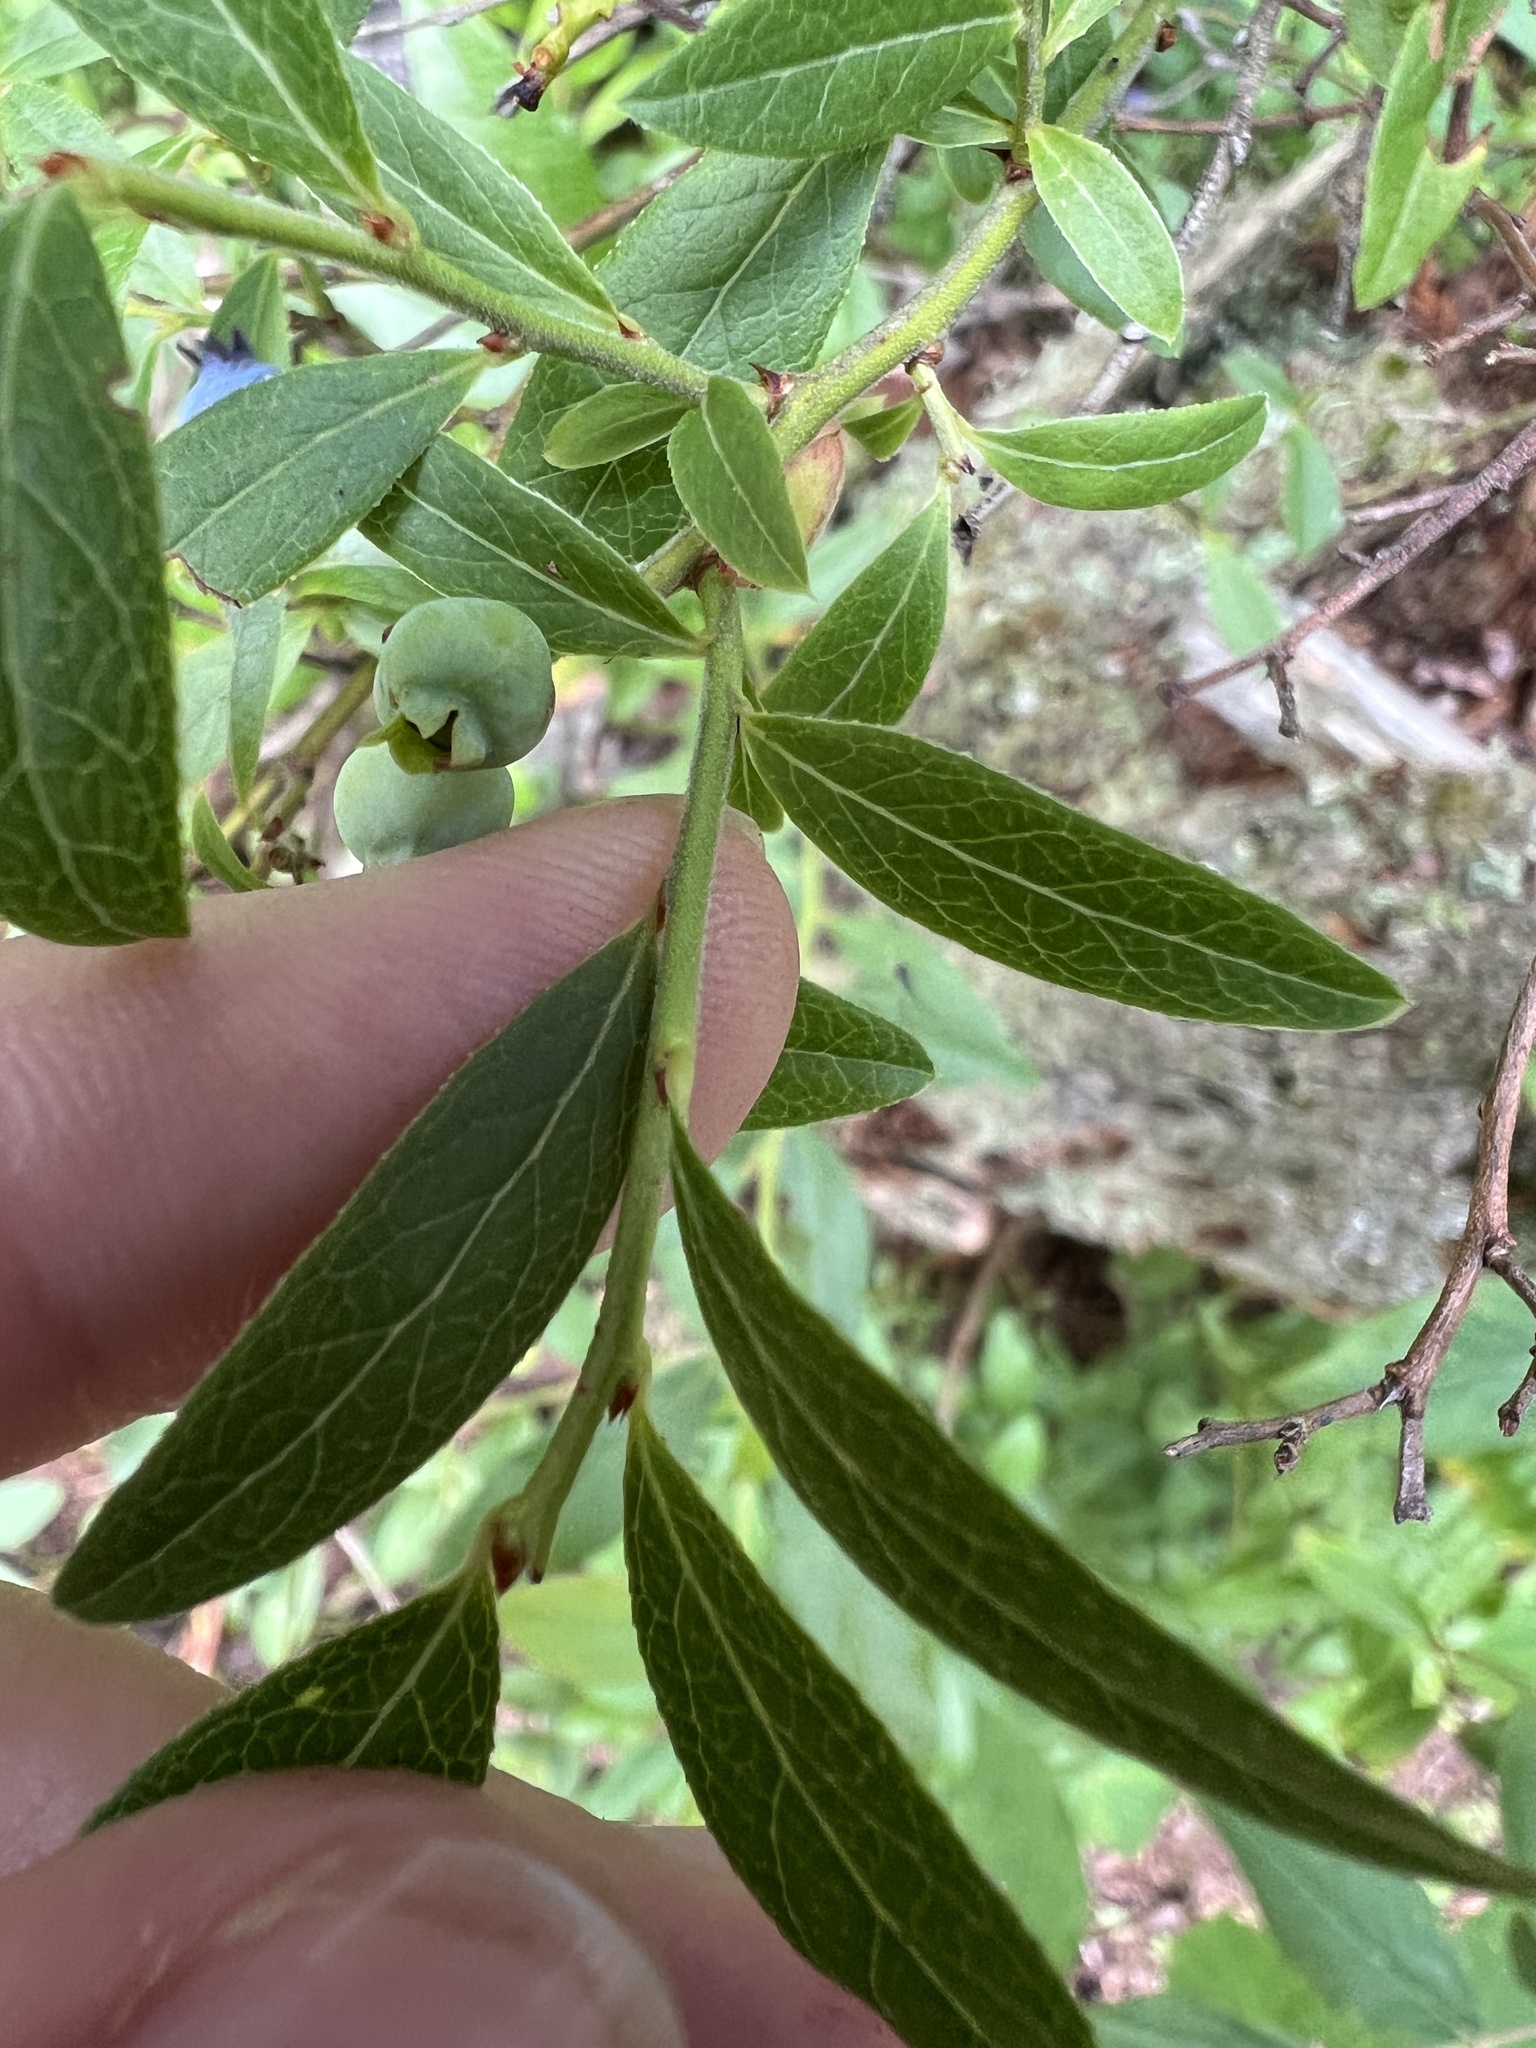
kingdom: Plantae
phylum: Tracheophyta
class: Magnoliopsida
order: Ericales
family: Ericaceae
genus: Vaccinium
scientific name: Vaccinium angustifolium
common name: Early lowbush blueberry
